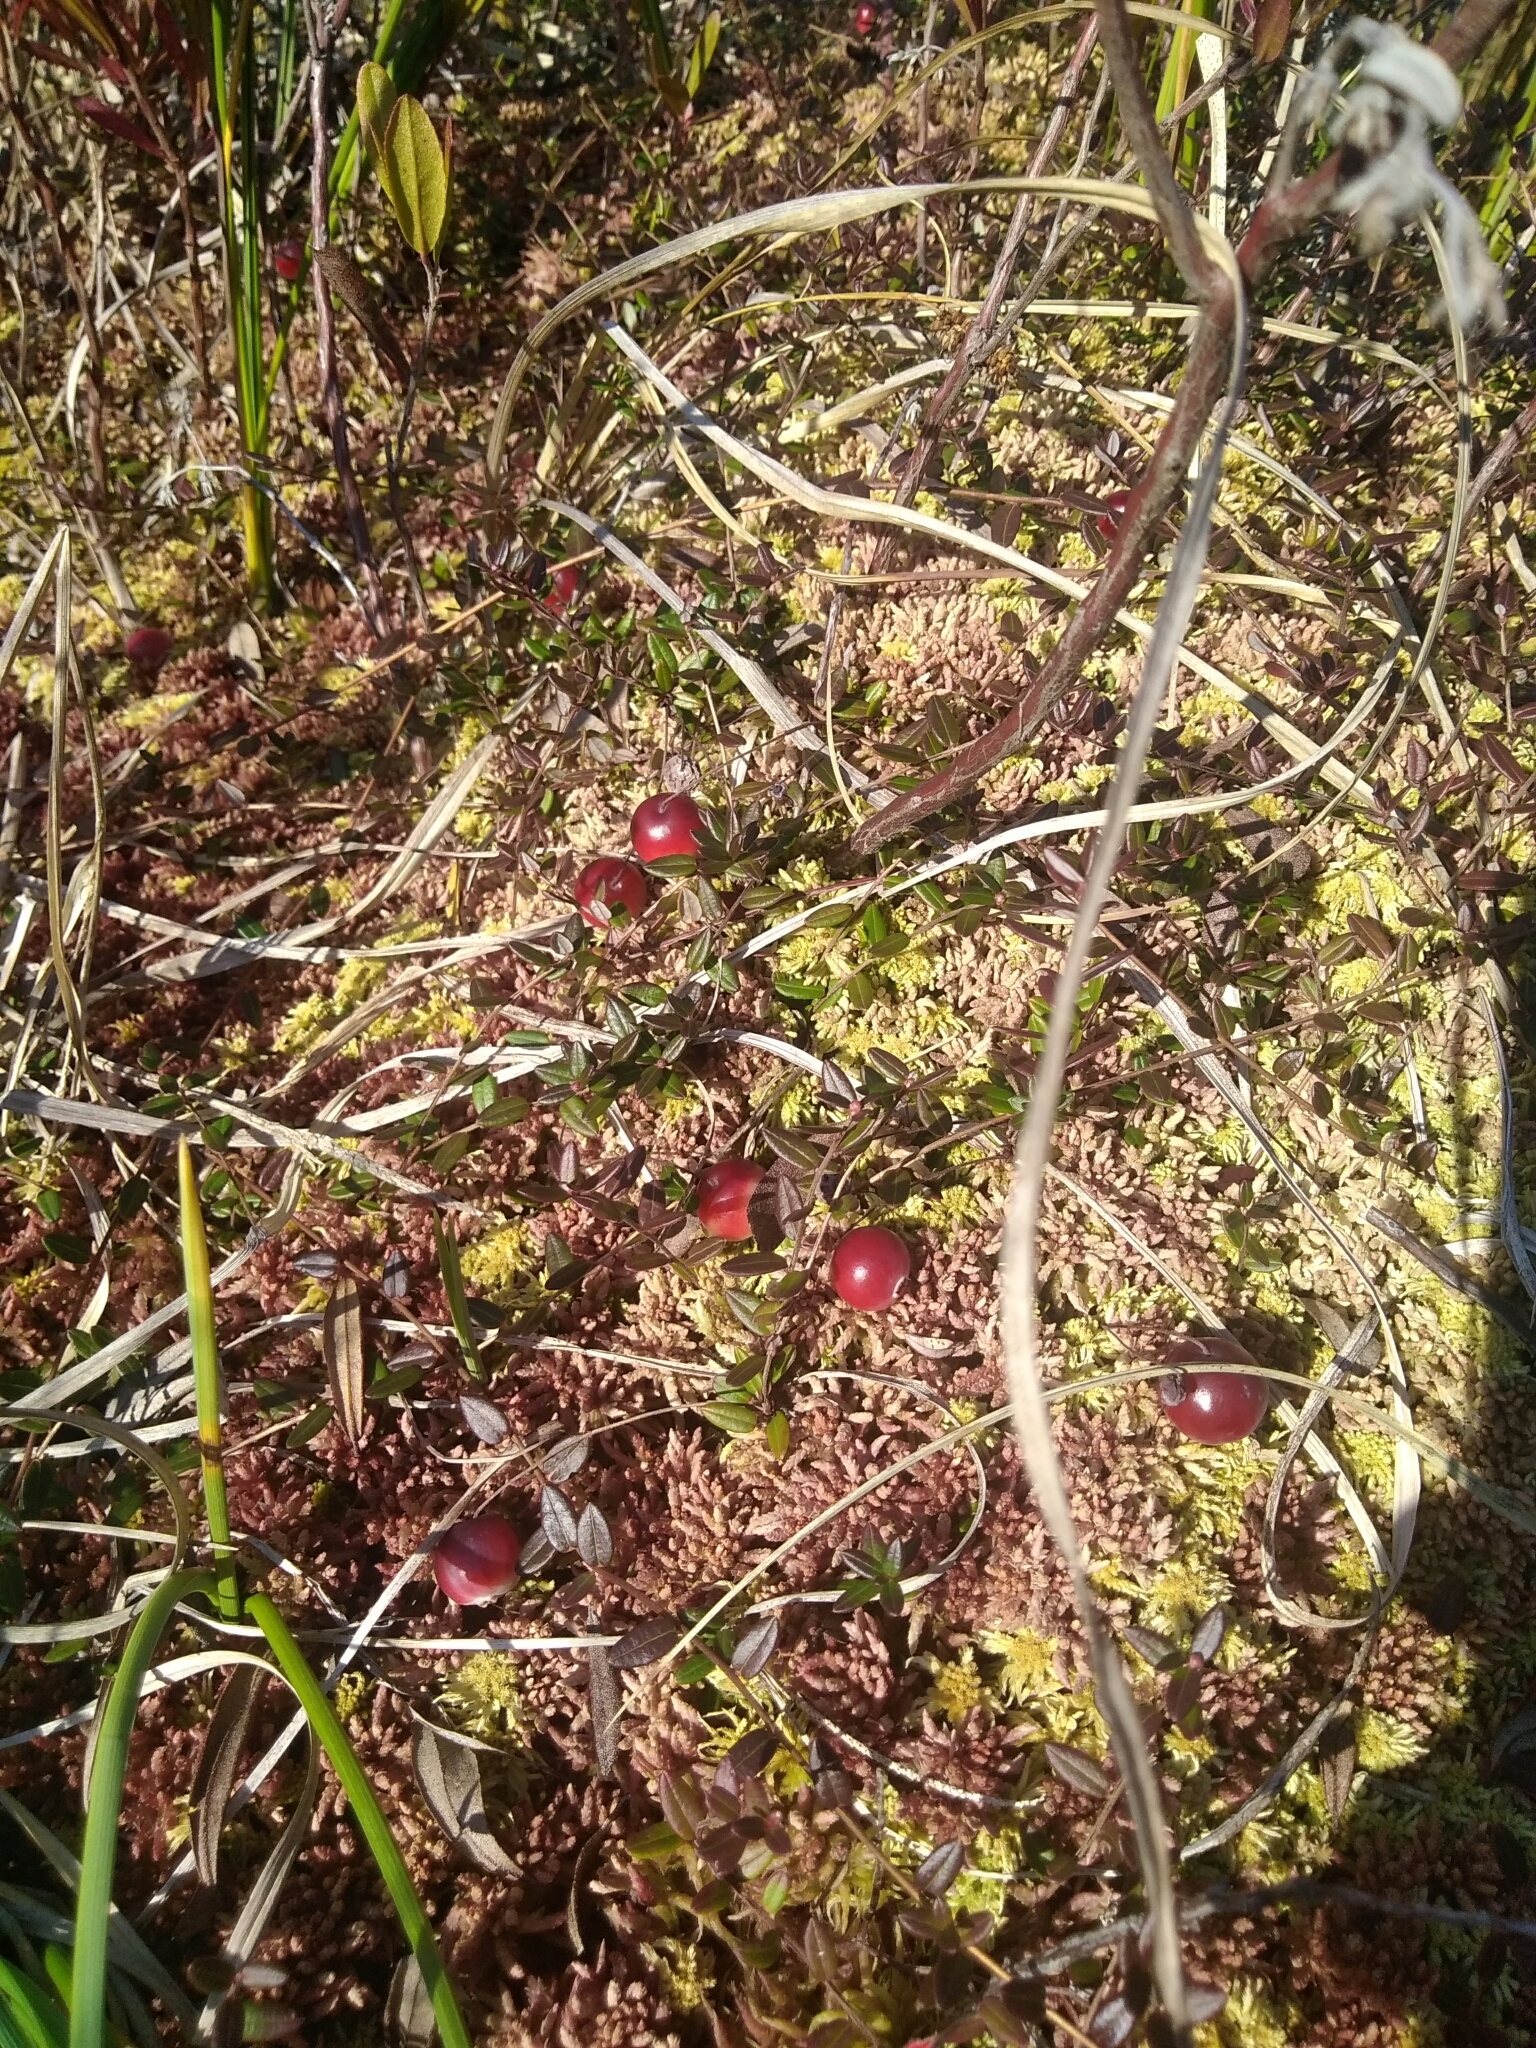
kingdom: Plantae
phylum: Tracheophyta
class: Magnoliopsida
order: Ericales
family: Ericaceae
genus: Vaccinium
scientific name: Vaccinium oxycoccos
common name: Cranberry
